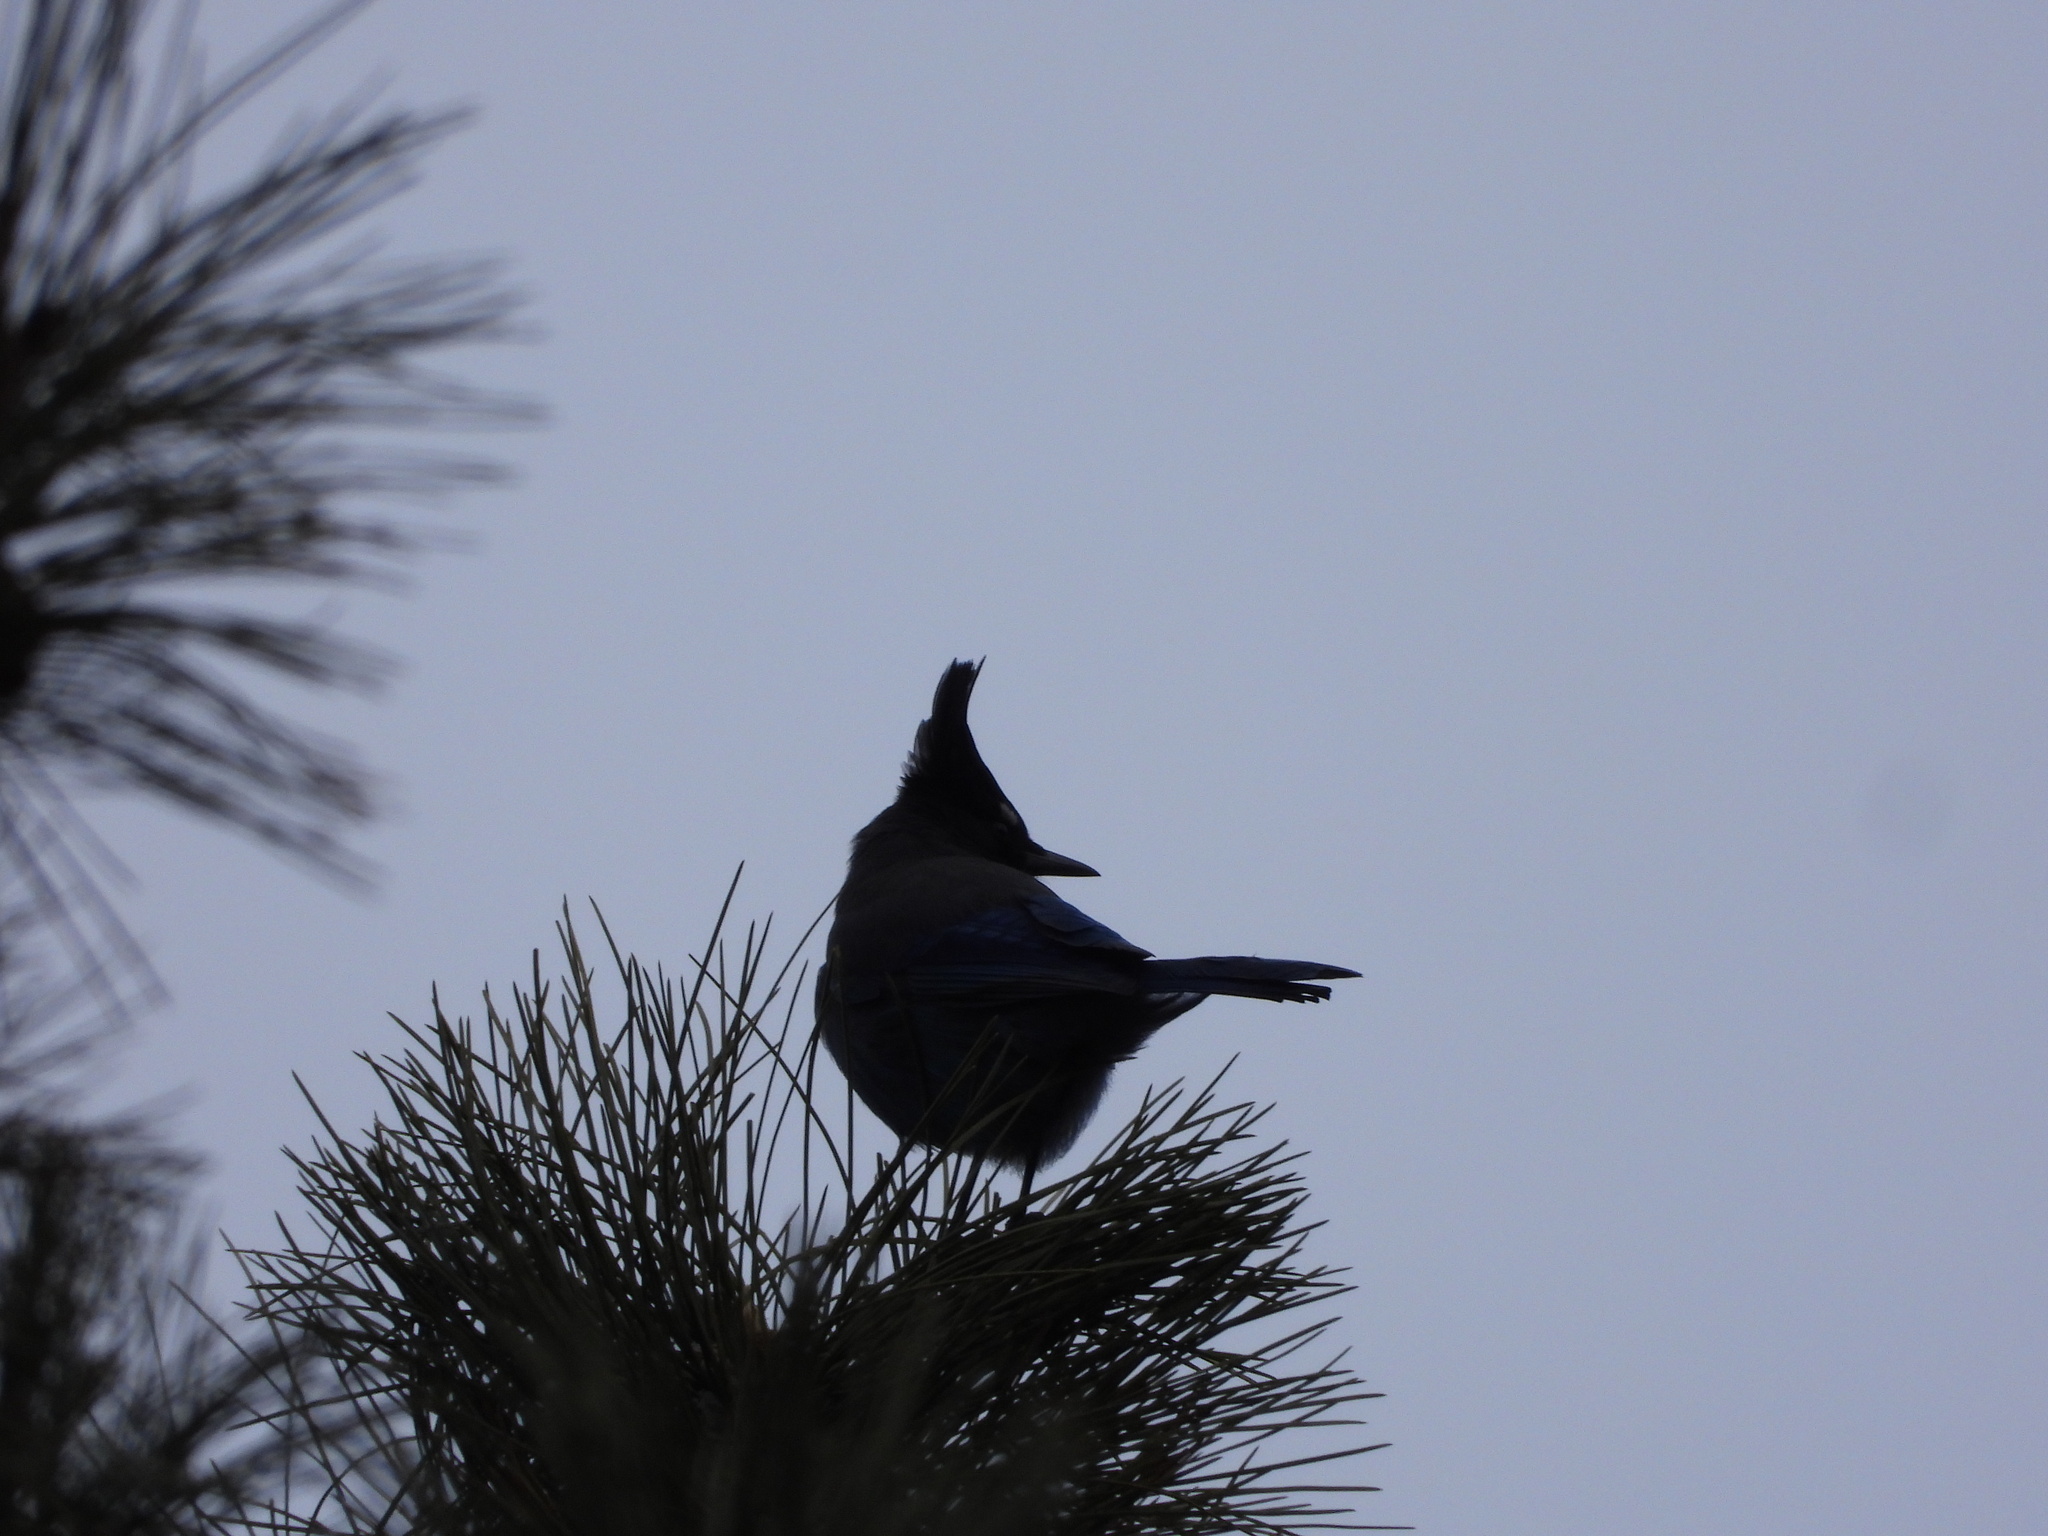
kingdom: Animalia
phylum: Chordata
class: Aves
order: Passeriformes
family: Corvidae
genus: Cyanocitta
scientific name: Cyanocitta stelleri
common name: Steller's jay
